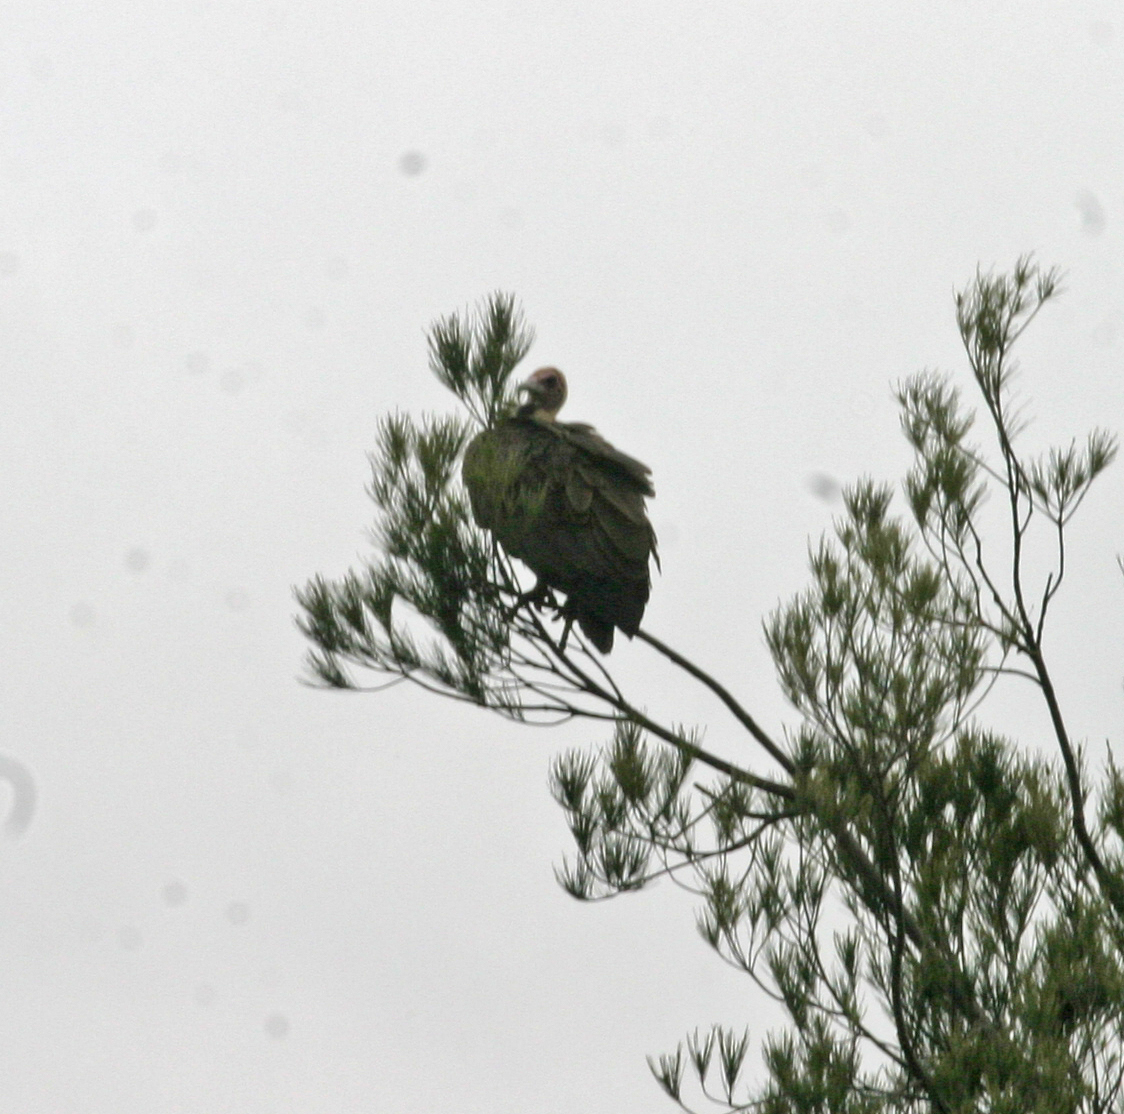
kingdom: Animalia
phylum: Chordata
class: Aves
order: Accipitriformes
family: Accipitridae
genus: Necrosyrtes
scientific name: Necrosyrtes monachus
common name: Hooded vulture
